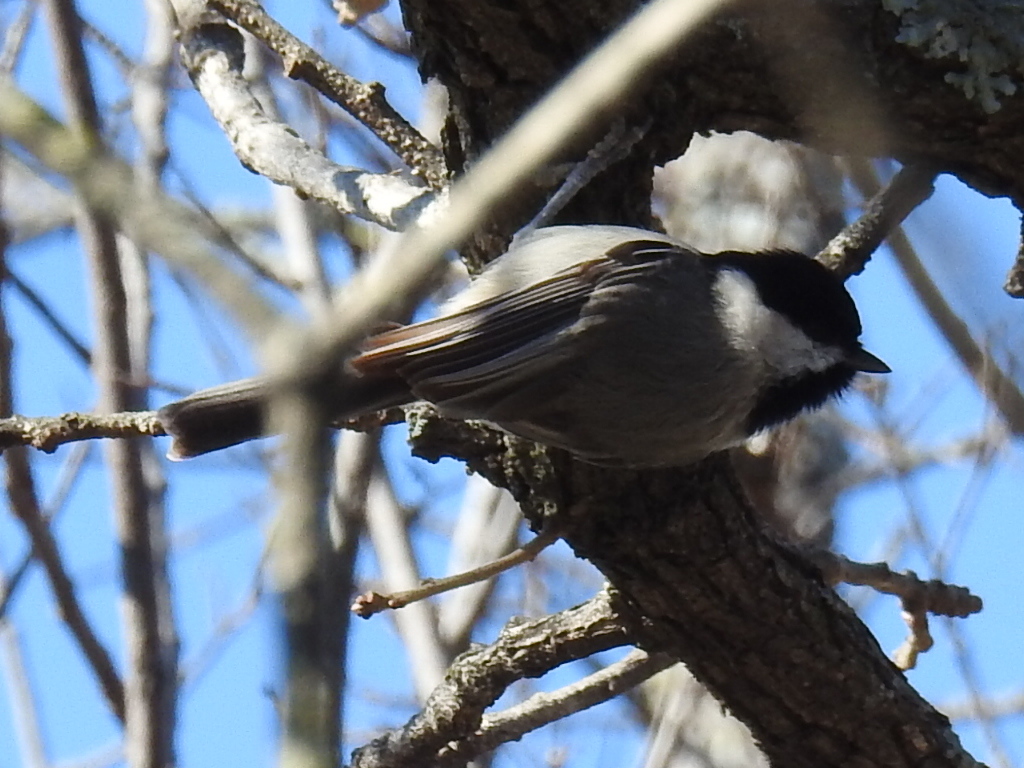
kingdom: Animalia
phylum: Chordata
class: Aves
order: Passeriformes
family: Paridae
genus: Poecile
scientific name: Poecile carolinensis
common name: Carolina chickadee
